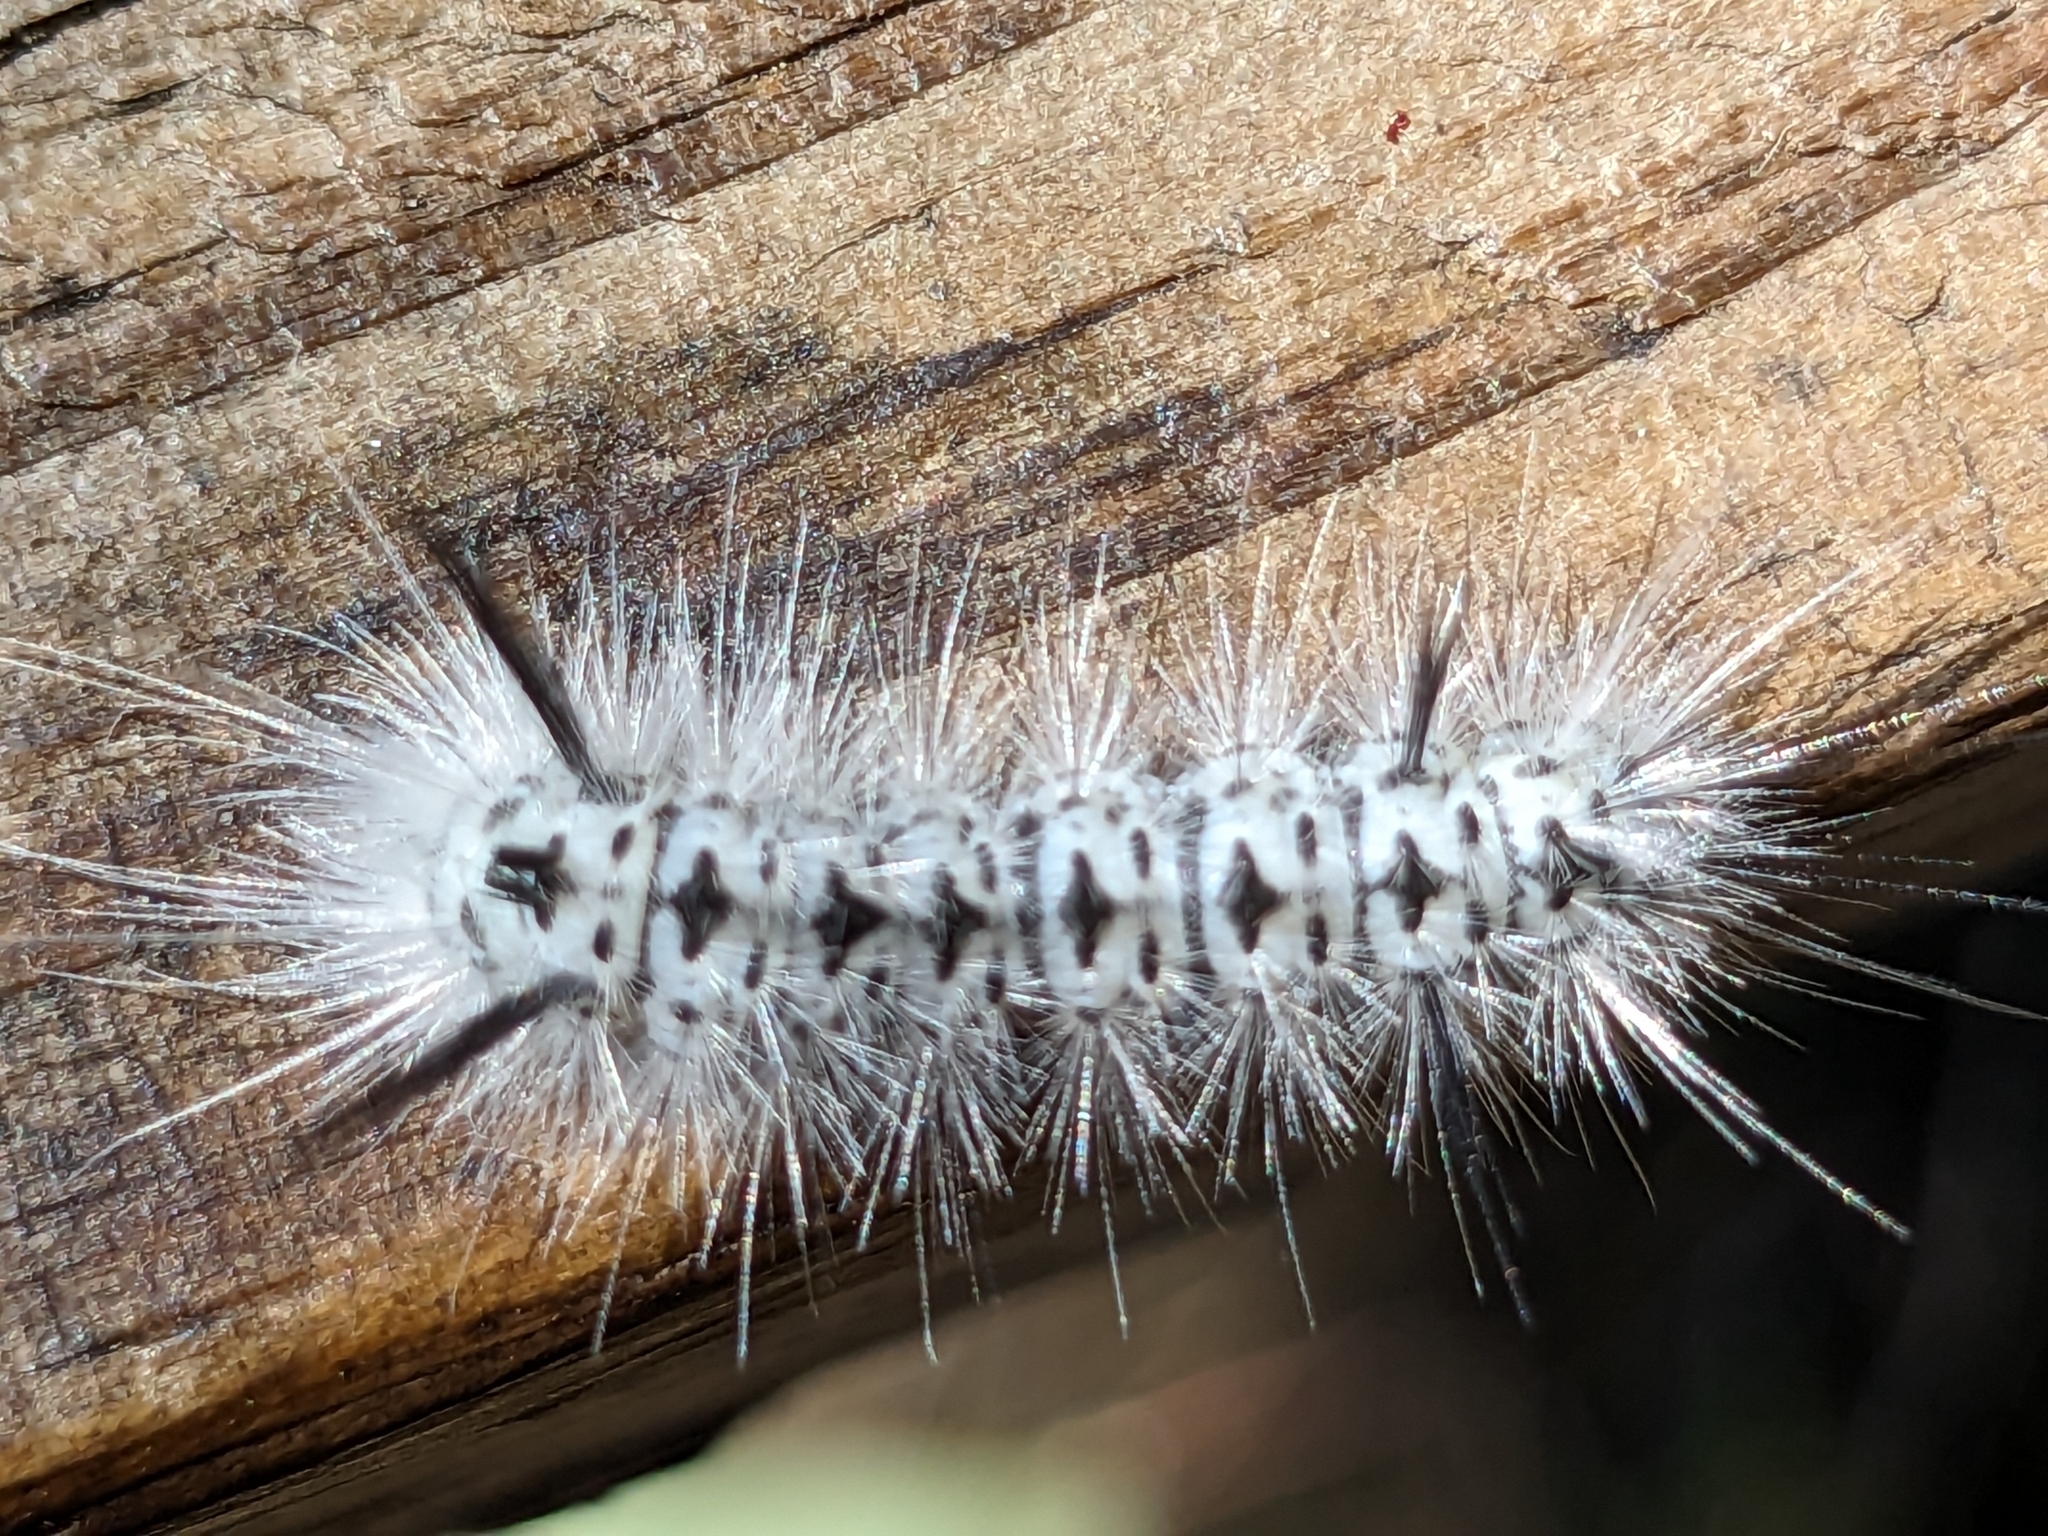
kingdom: Animalia
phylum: Arthropoda
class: Insecta
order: Lepidoptera
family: Erebidae
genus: Lophocampa
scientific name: Lophocampa caryae
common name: Hickory tussock moth
